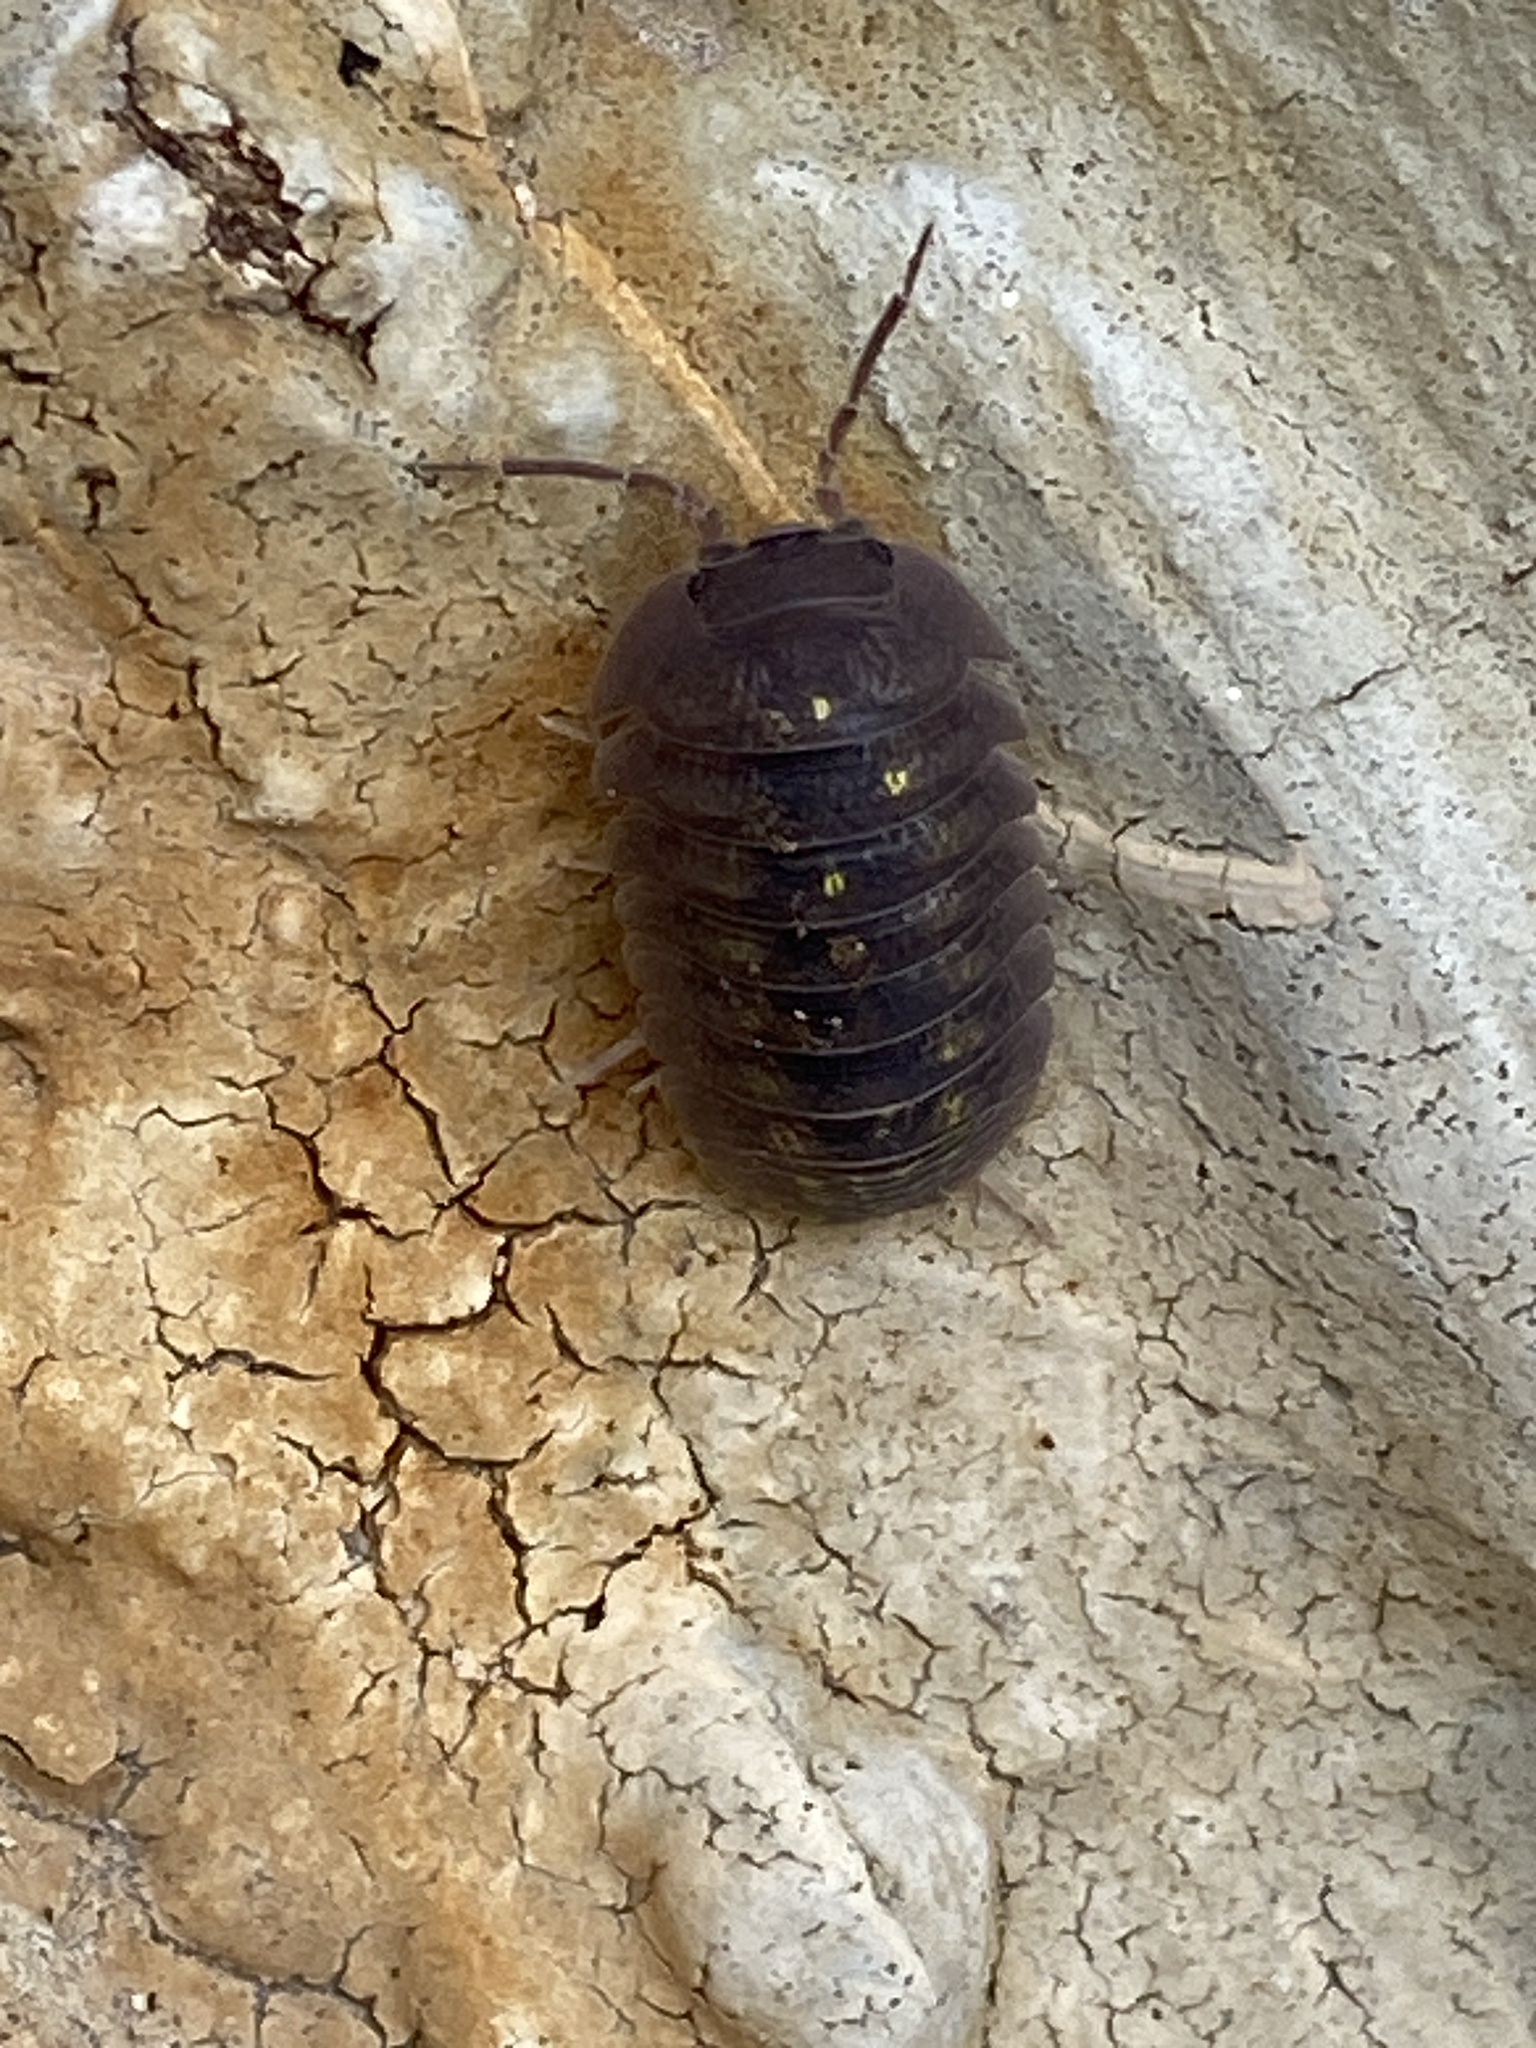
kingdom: Animalia
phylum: Arthropoda
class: Malacostraca
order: Isopoda
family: Armadillidiidae
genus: Armadillidium
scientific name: Armadillidium granulatum
